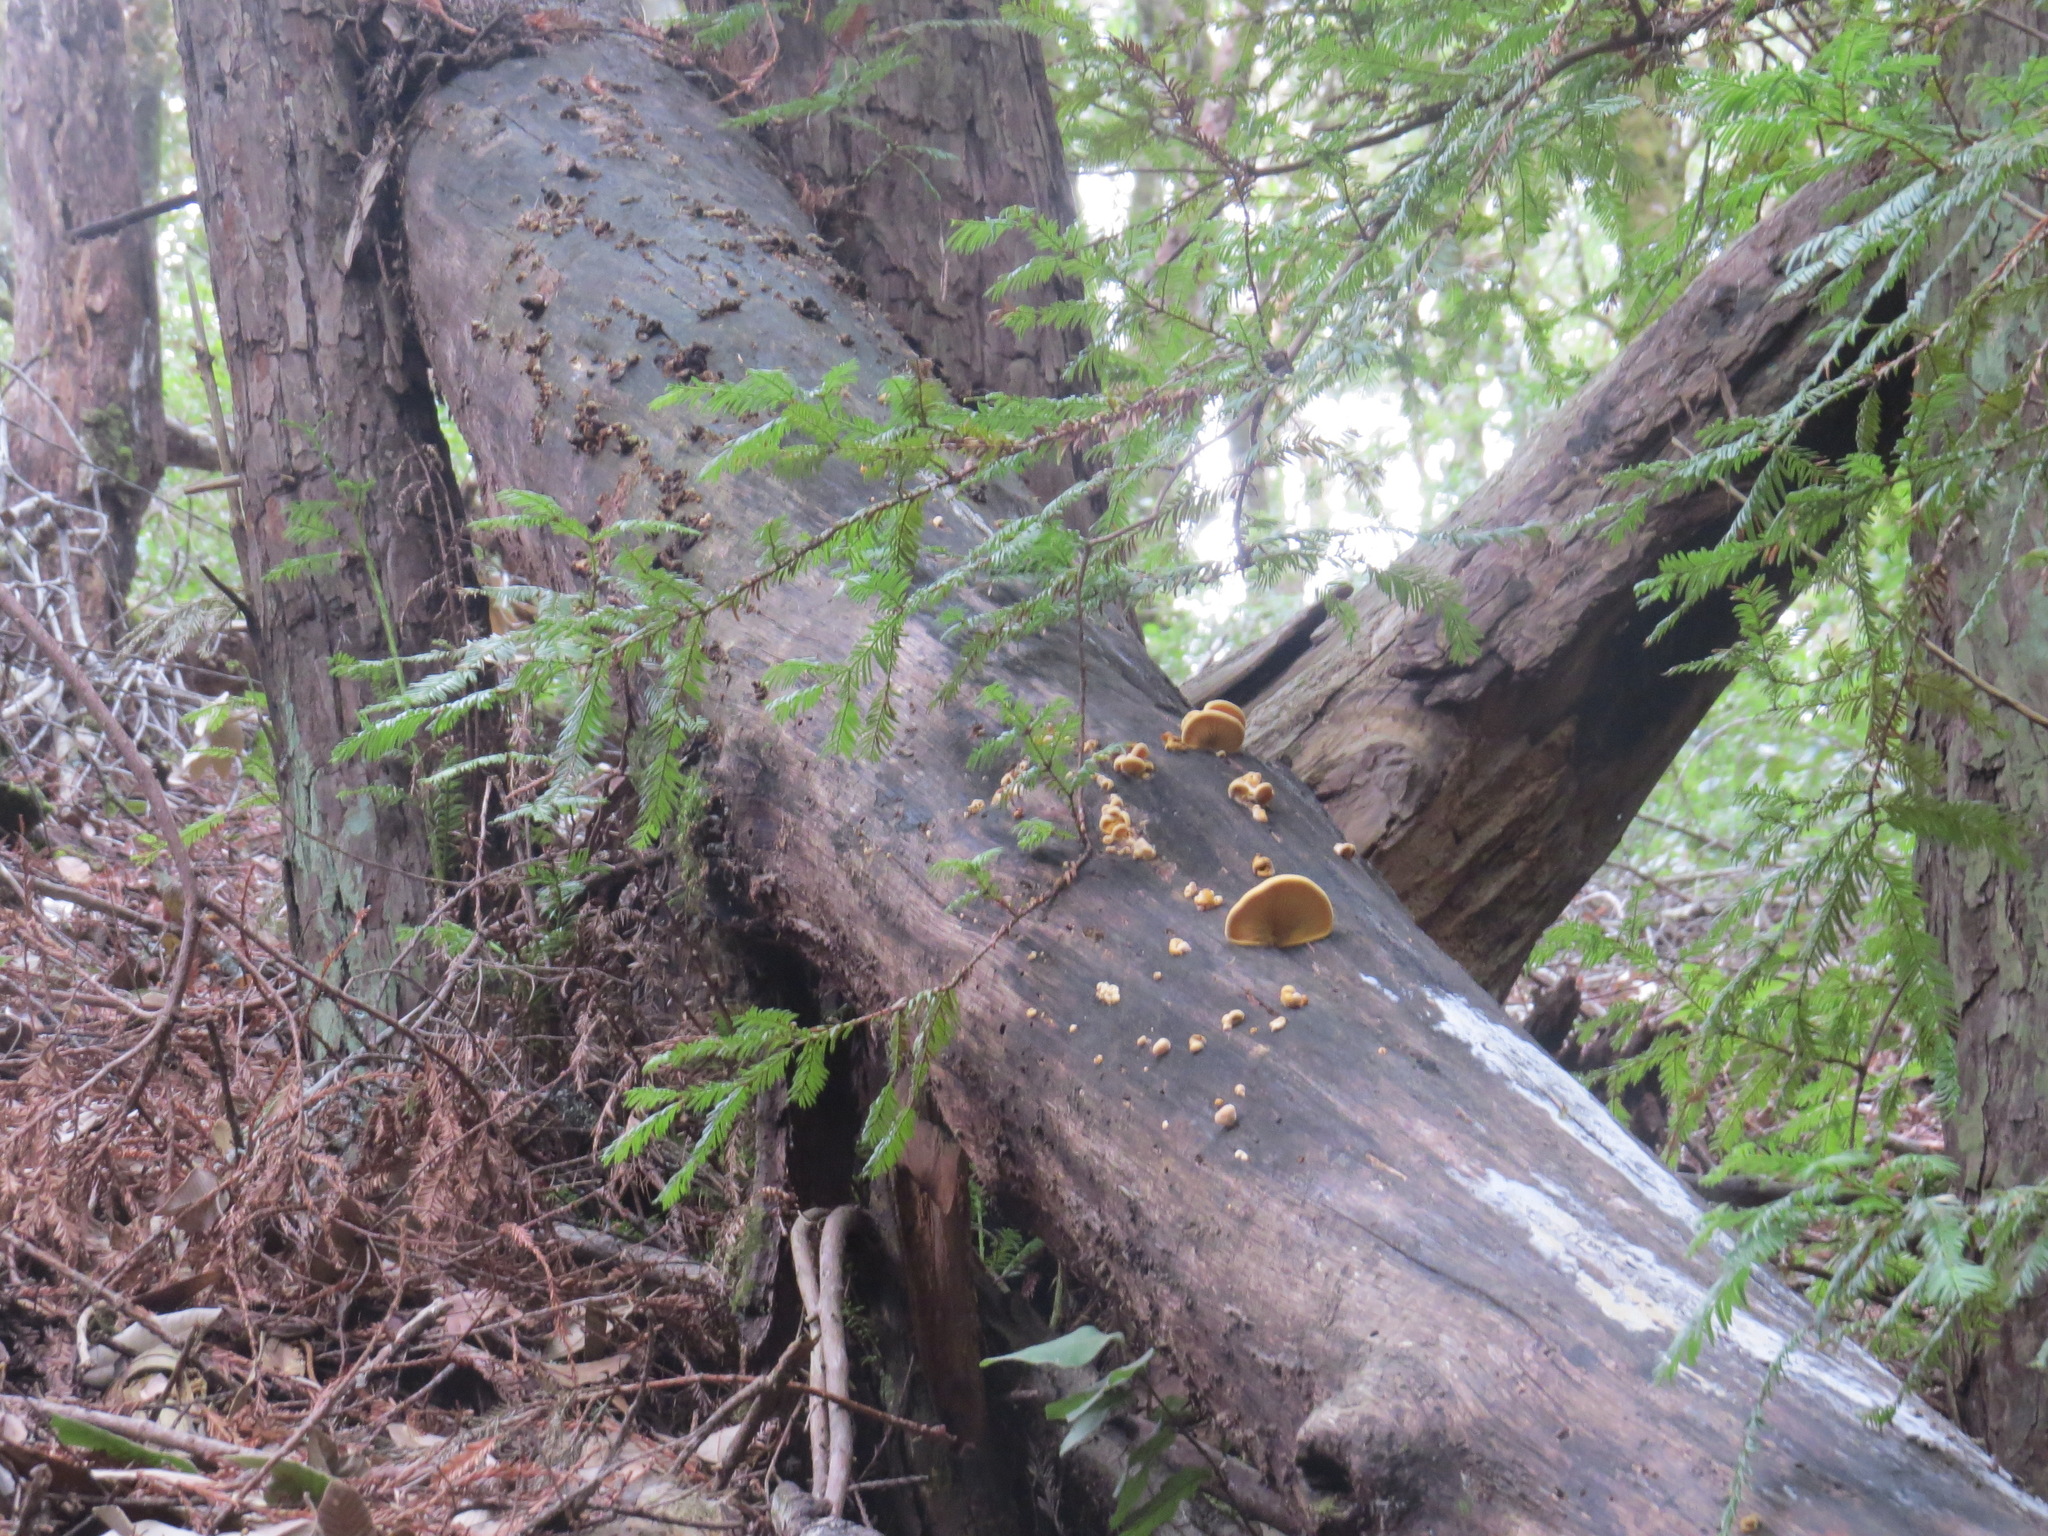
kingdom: Fungi
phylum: Basidiomycota
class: Agaricomycetes
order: Agaricales
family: Phyllotopsidaceae
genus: Phyllotopsis
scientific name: Phyllotopsis nidulans
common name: Orange mock oyster
